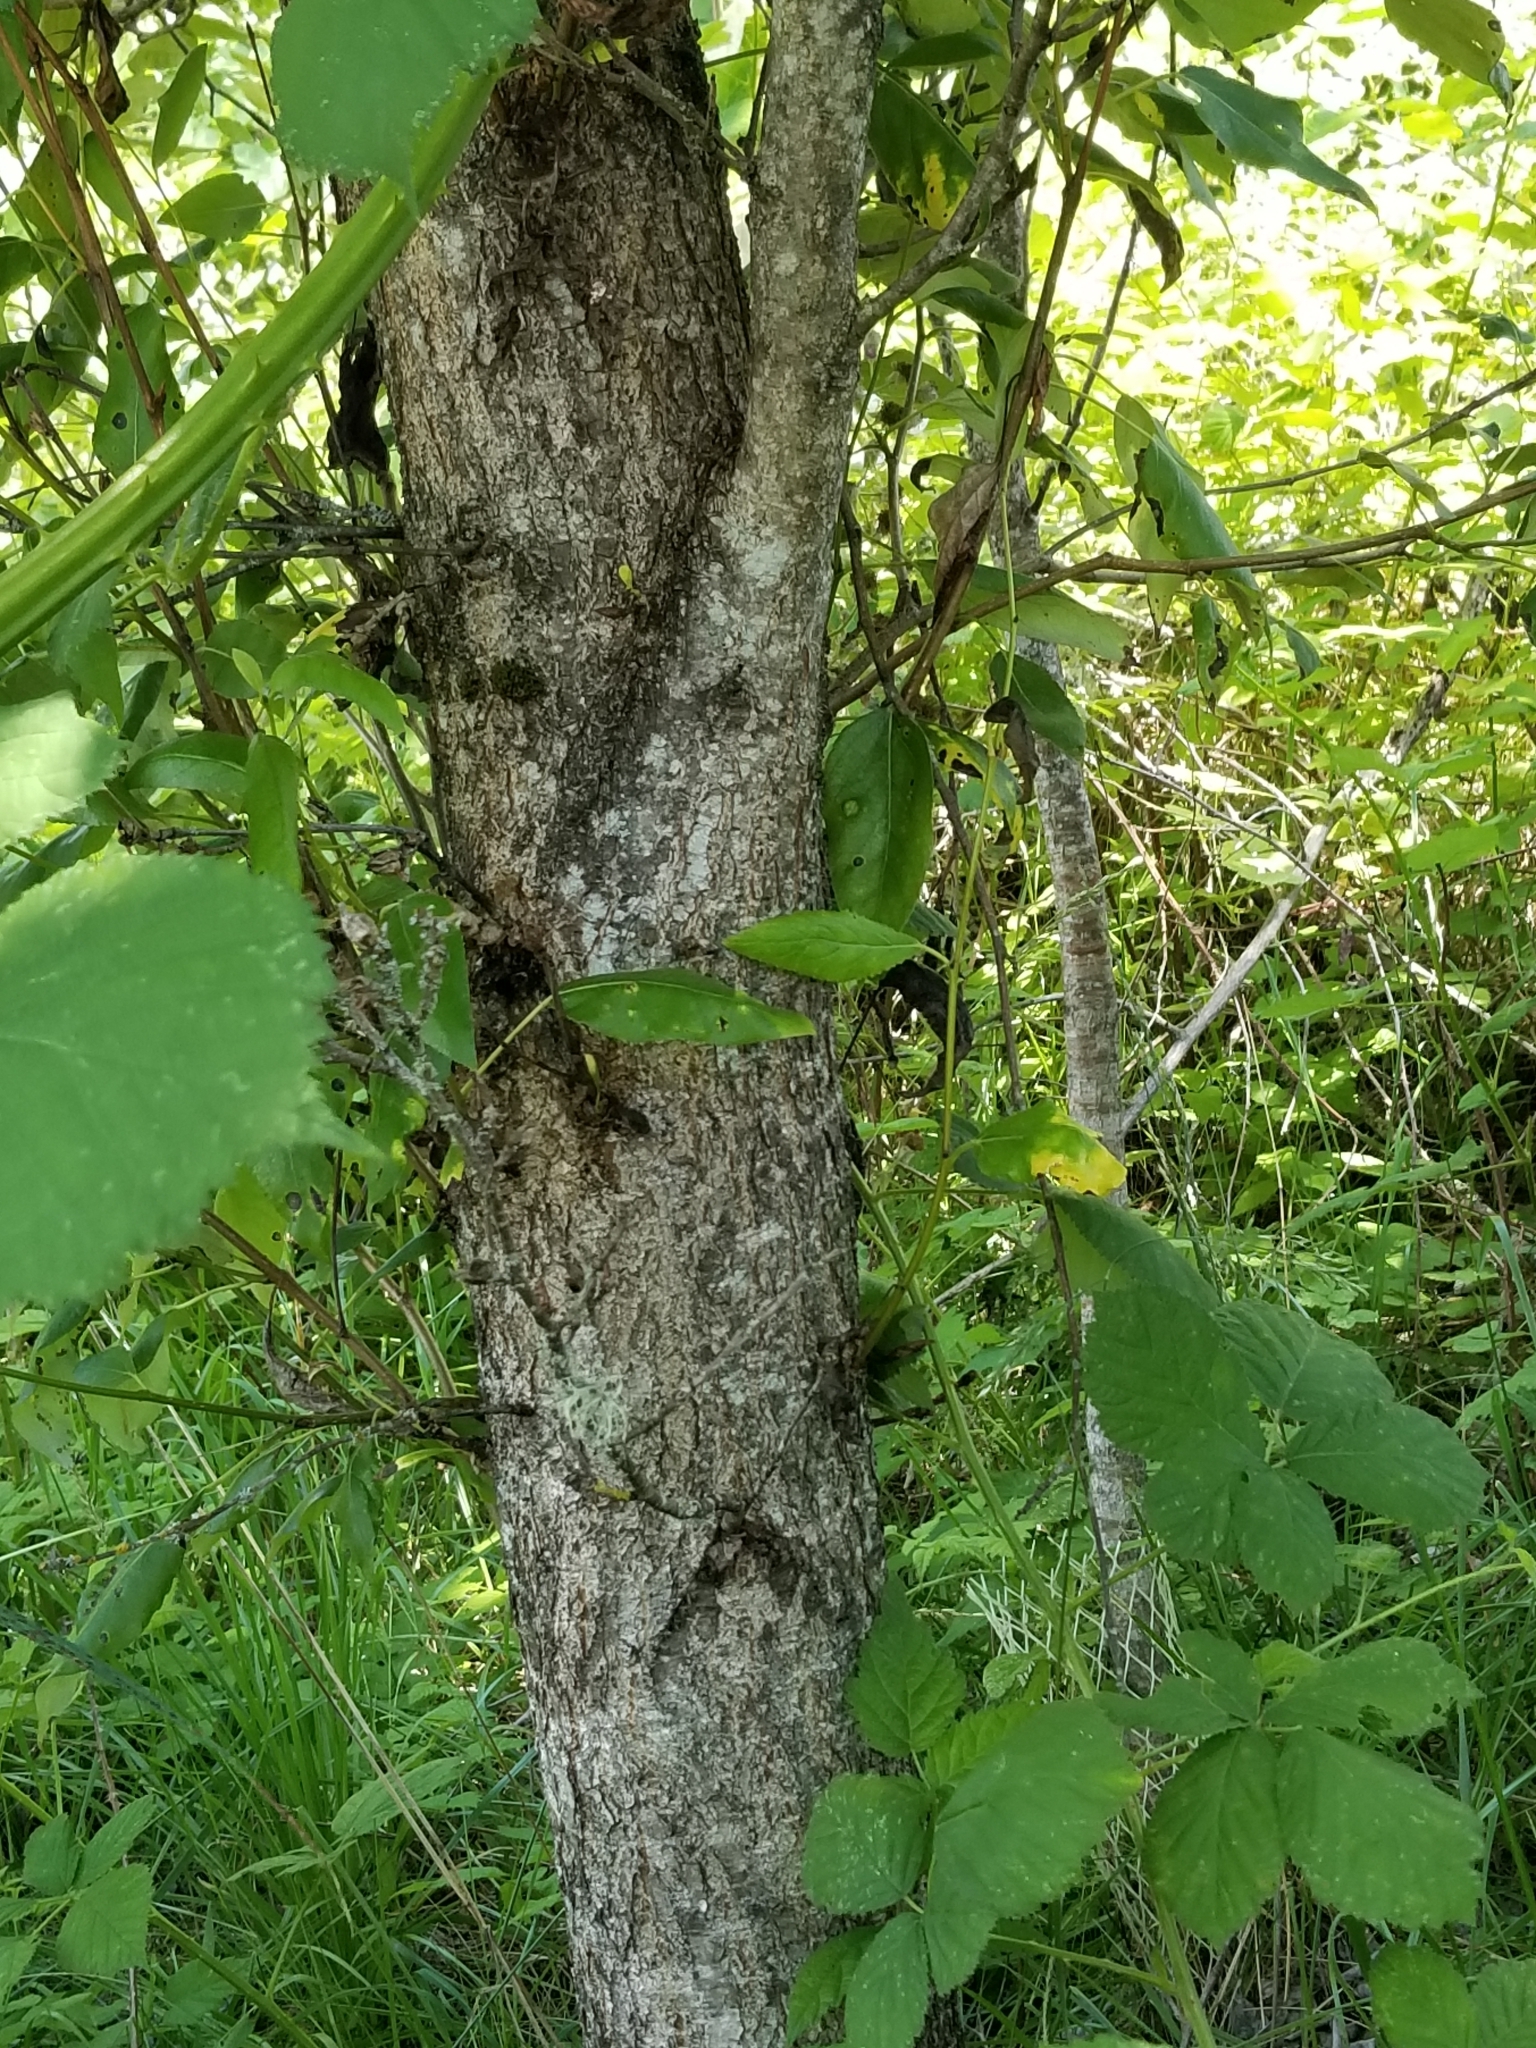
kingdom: Plantae
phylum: Tracheophyta
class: Magnoliopsida
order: Malpighiales
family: Salicaceae
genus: Populus
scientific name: Populus trichocarpa
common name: Black cottonwood
